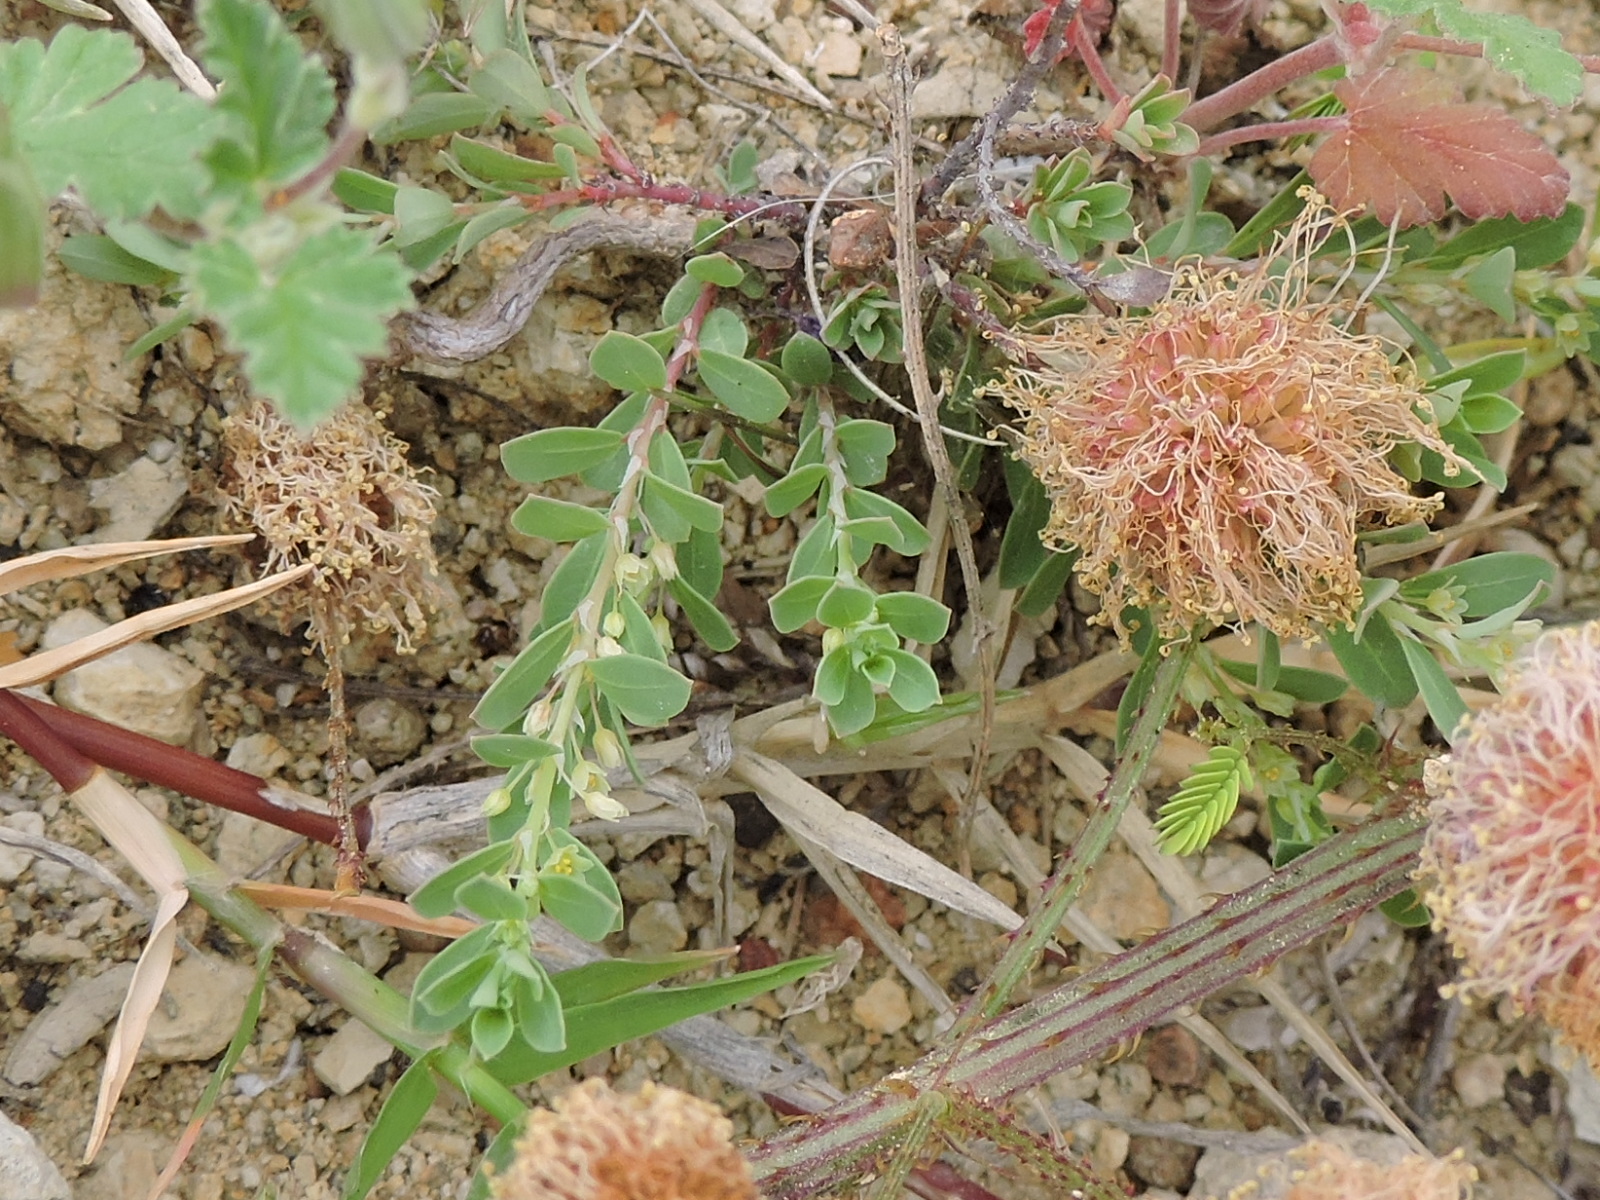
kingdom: Plantae
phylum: Tracheophyta
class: Magnoliopsida
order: Malpighiales
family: Phyllanthaceae
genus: Phyllanthus
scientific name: Phyllanthus polygonoides
